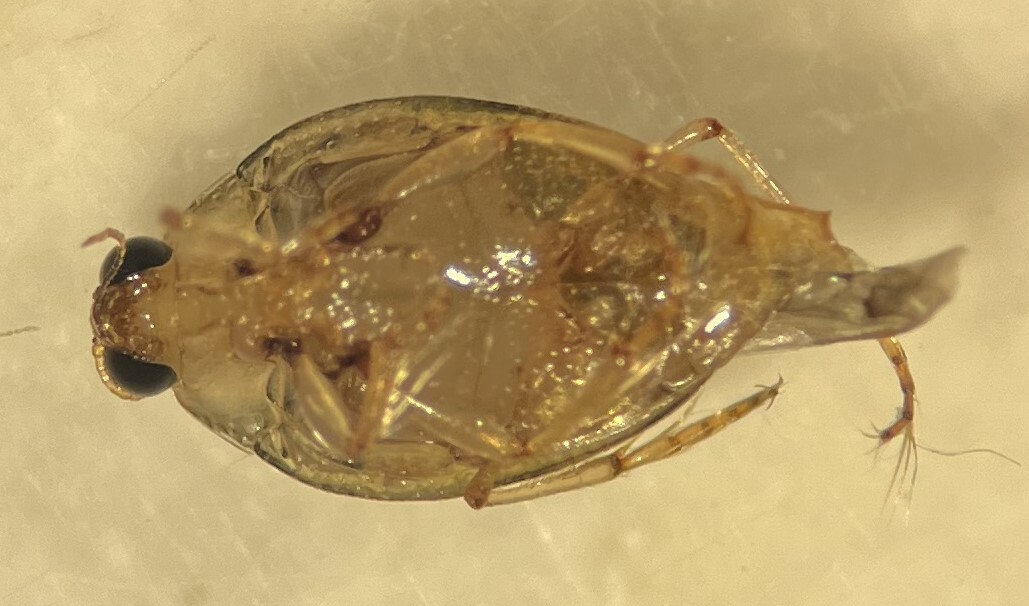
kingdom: Animalia
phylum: Arthropoda
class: Insecta
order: Coleoptera
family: Haliplidae
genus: Peltodytes
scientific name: Peltodytes litoralis
